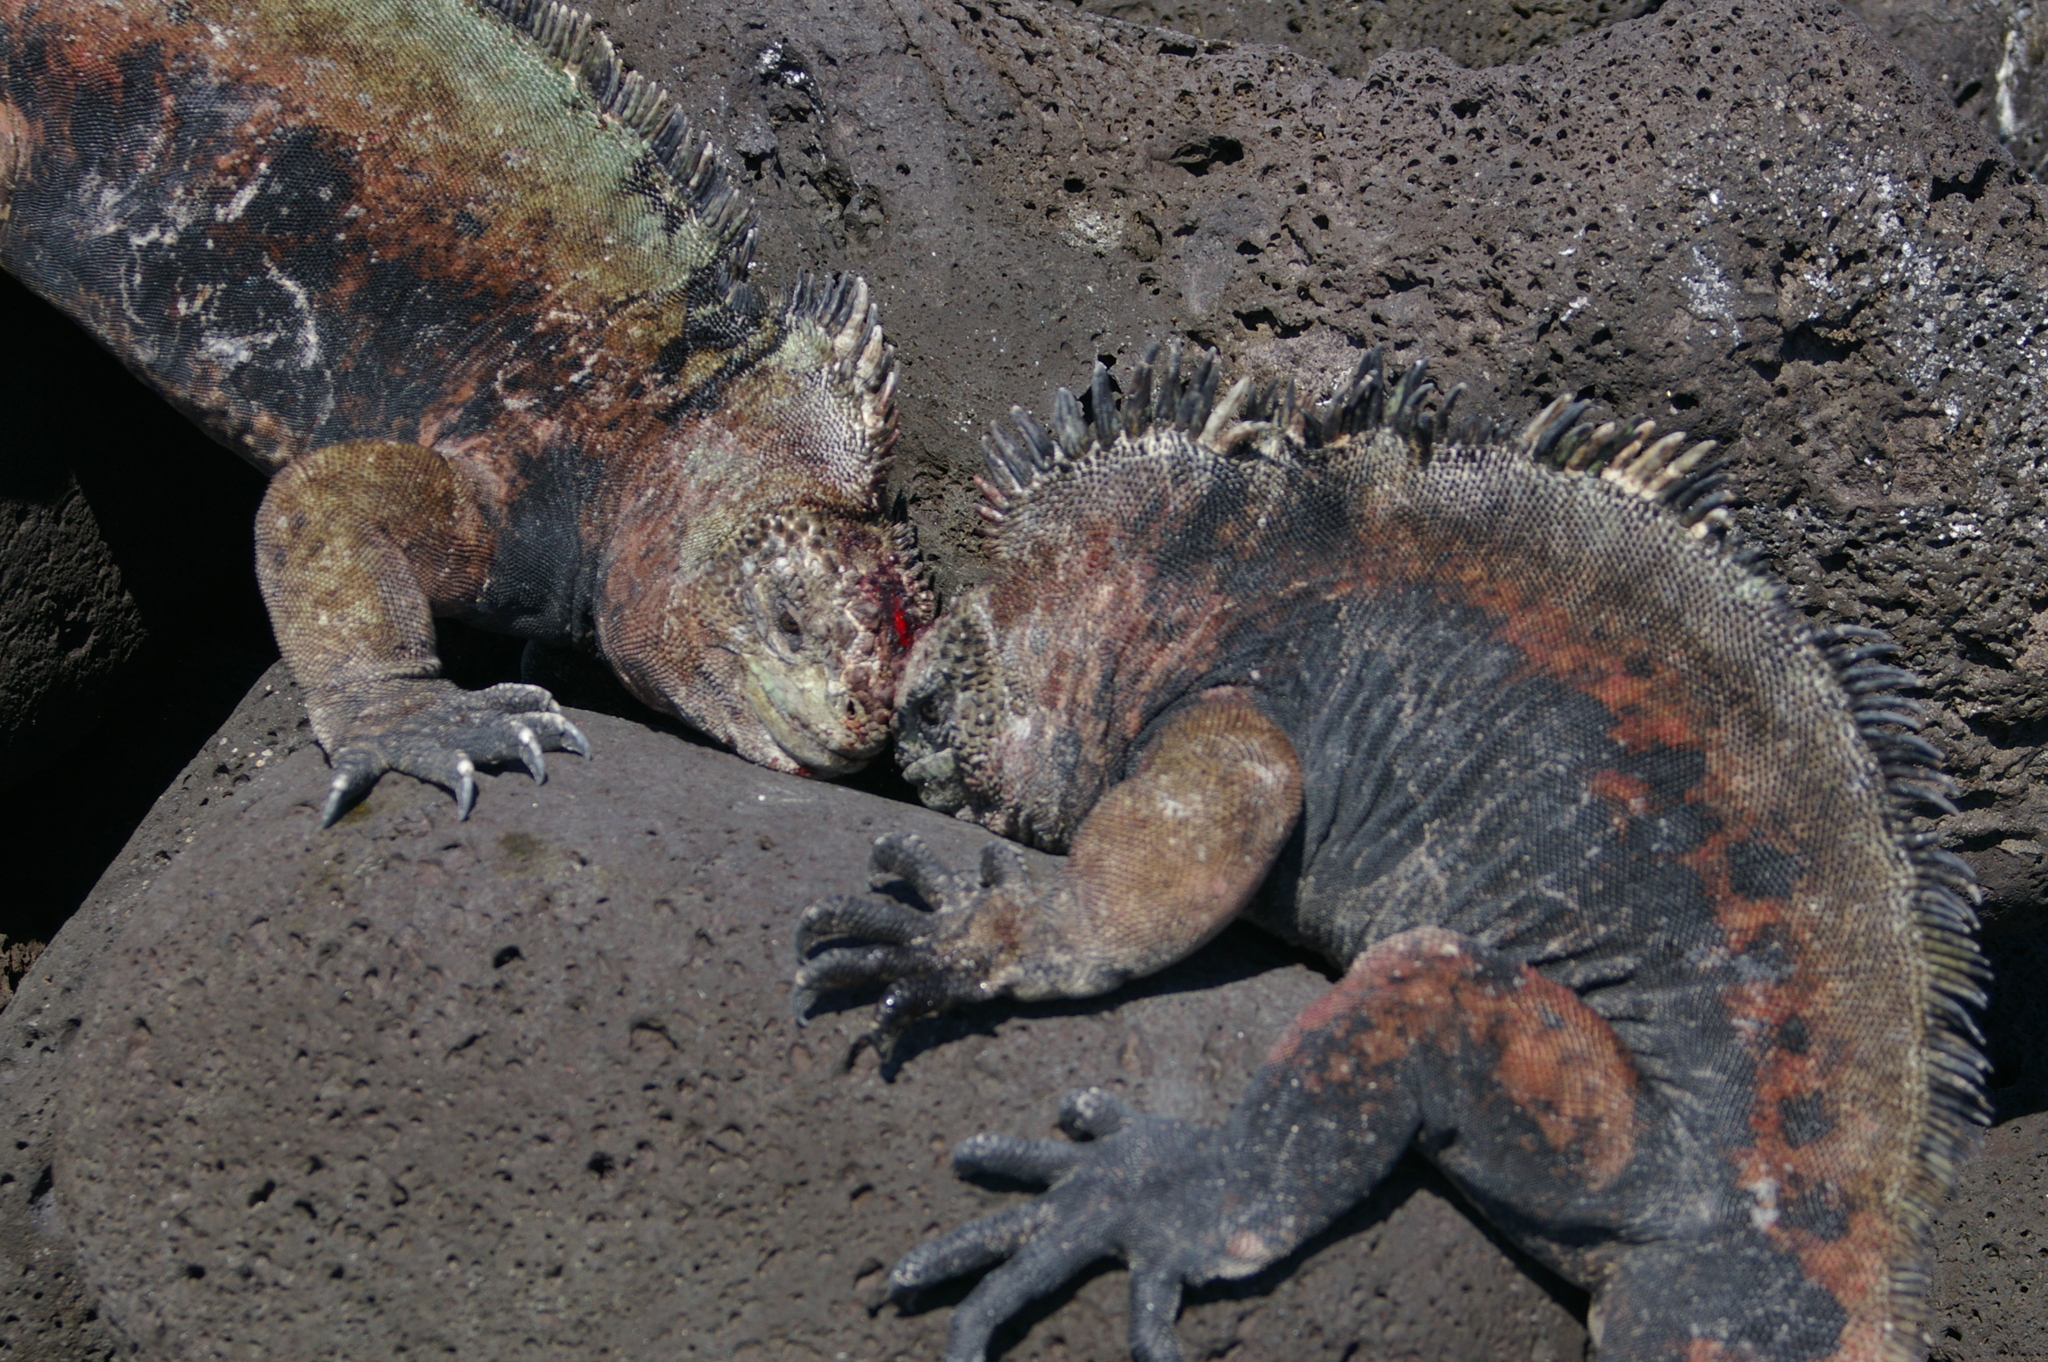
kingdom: Animalia
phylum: Chordata
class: Squamata
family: Iguanidae
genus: Amblyrhynchus
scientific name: Amblyrhynchus cristatus
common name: Marine iguana
